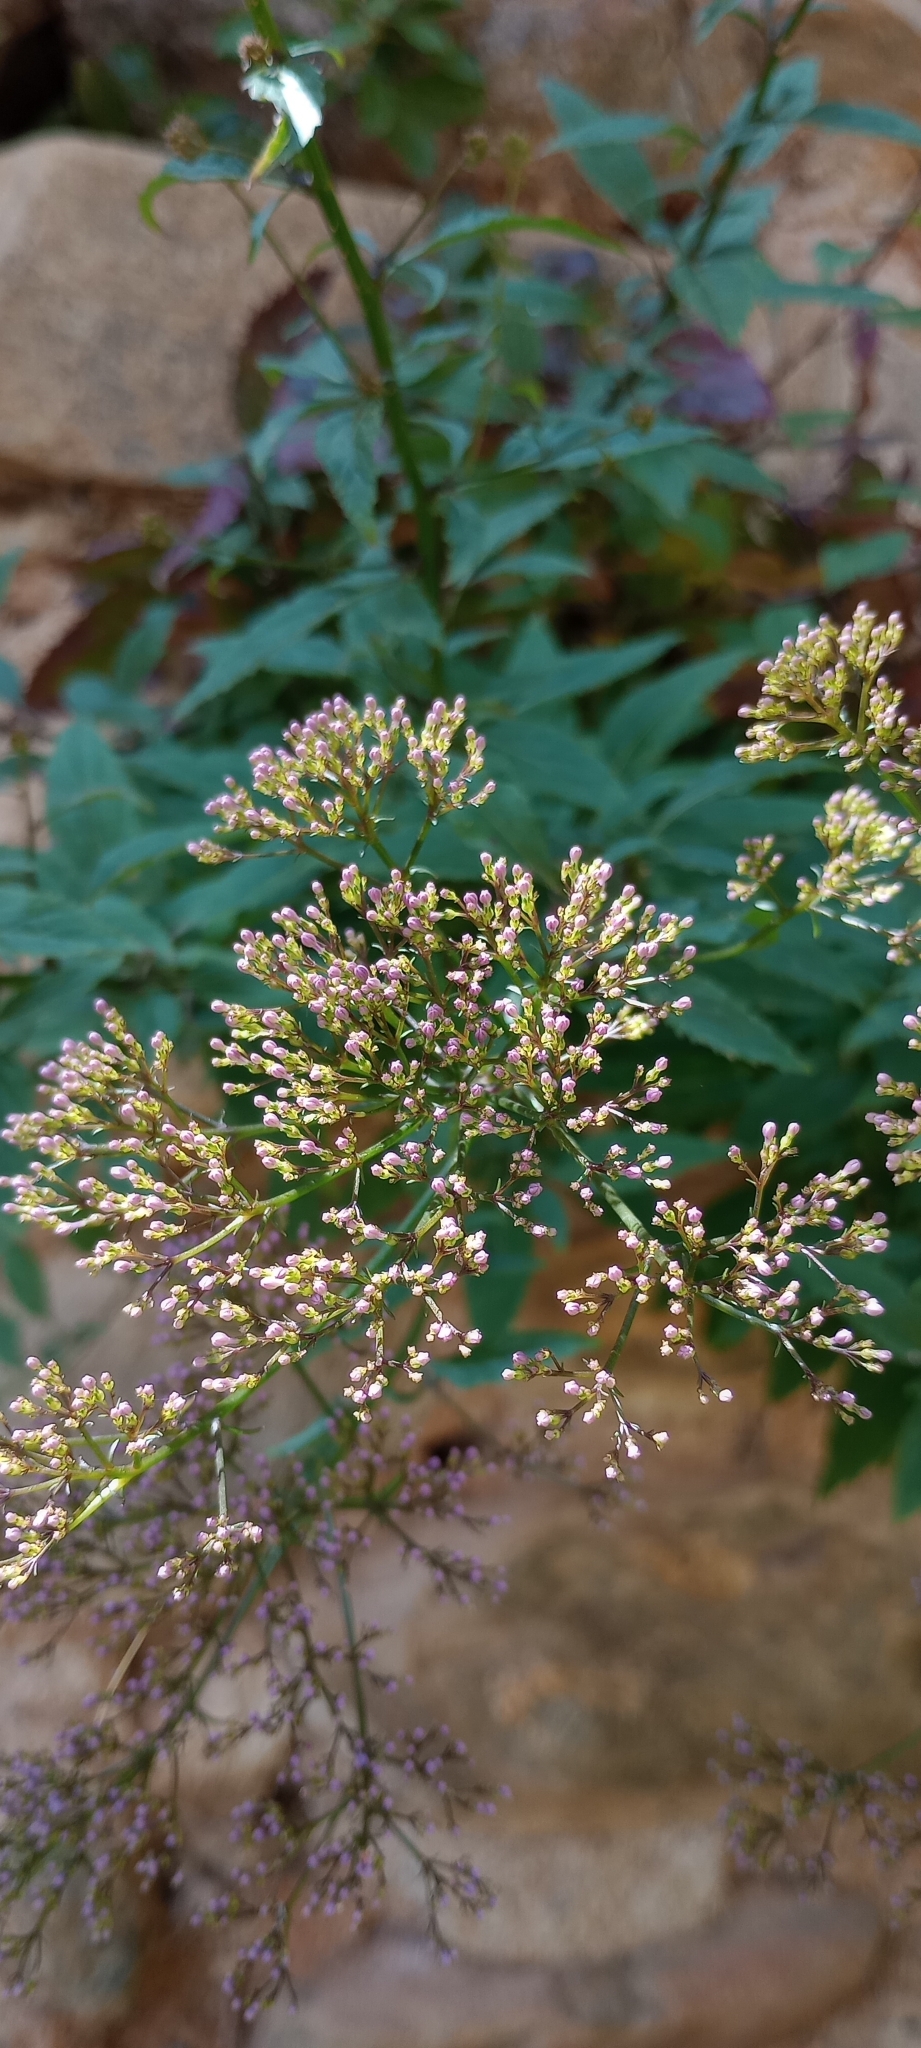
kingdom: Plantae
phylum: Tracheophyta
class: Magnoliopsida
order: Asterales
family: Campanulaceae
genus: Trachelium
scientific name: Trachelium caeruleum
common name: Throatwort
